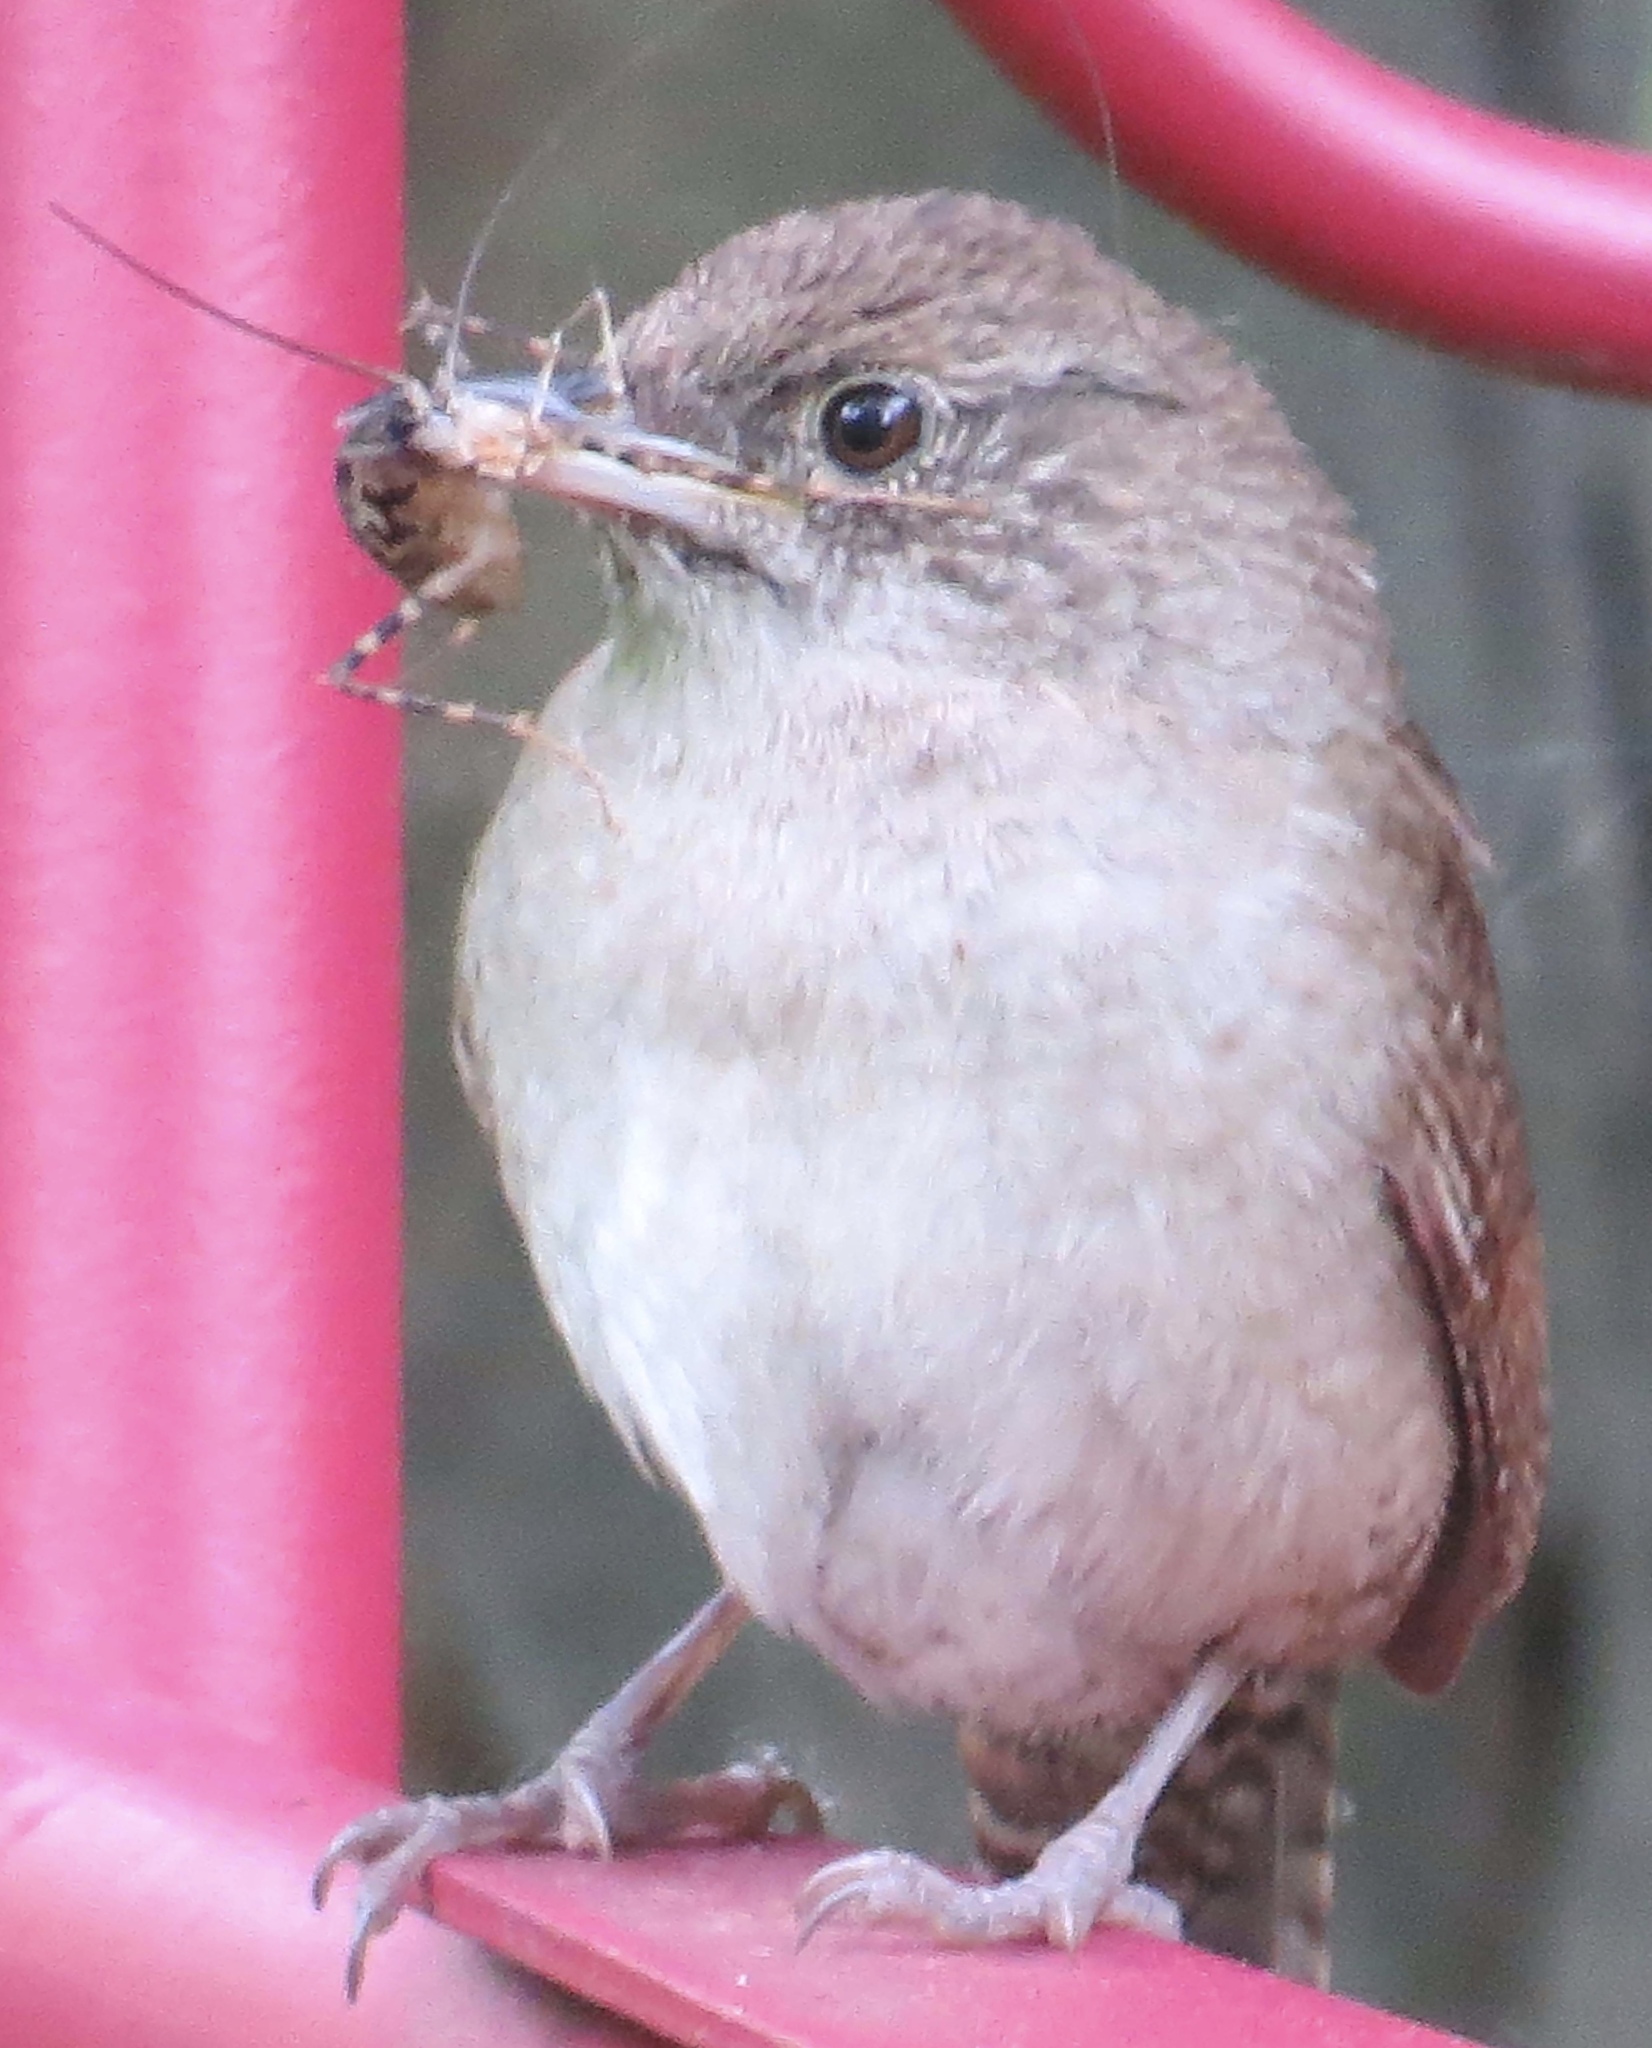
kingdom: Animalia
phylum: Chordata
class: Aves
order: Passeriformes
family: Troglodytidae
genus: Troglodytes
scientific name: Troglodytes aedon
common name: House wren
